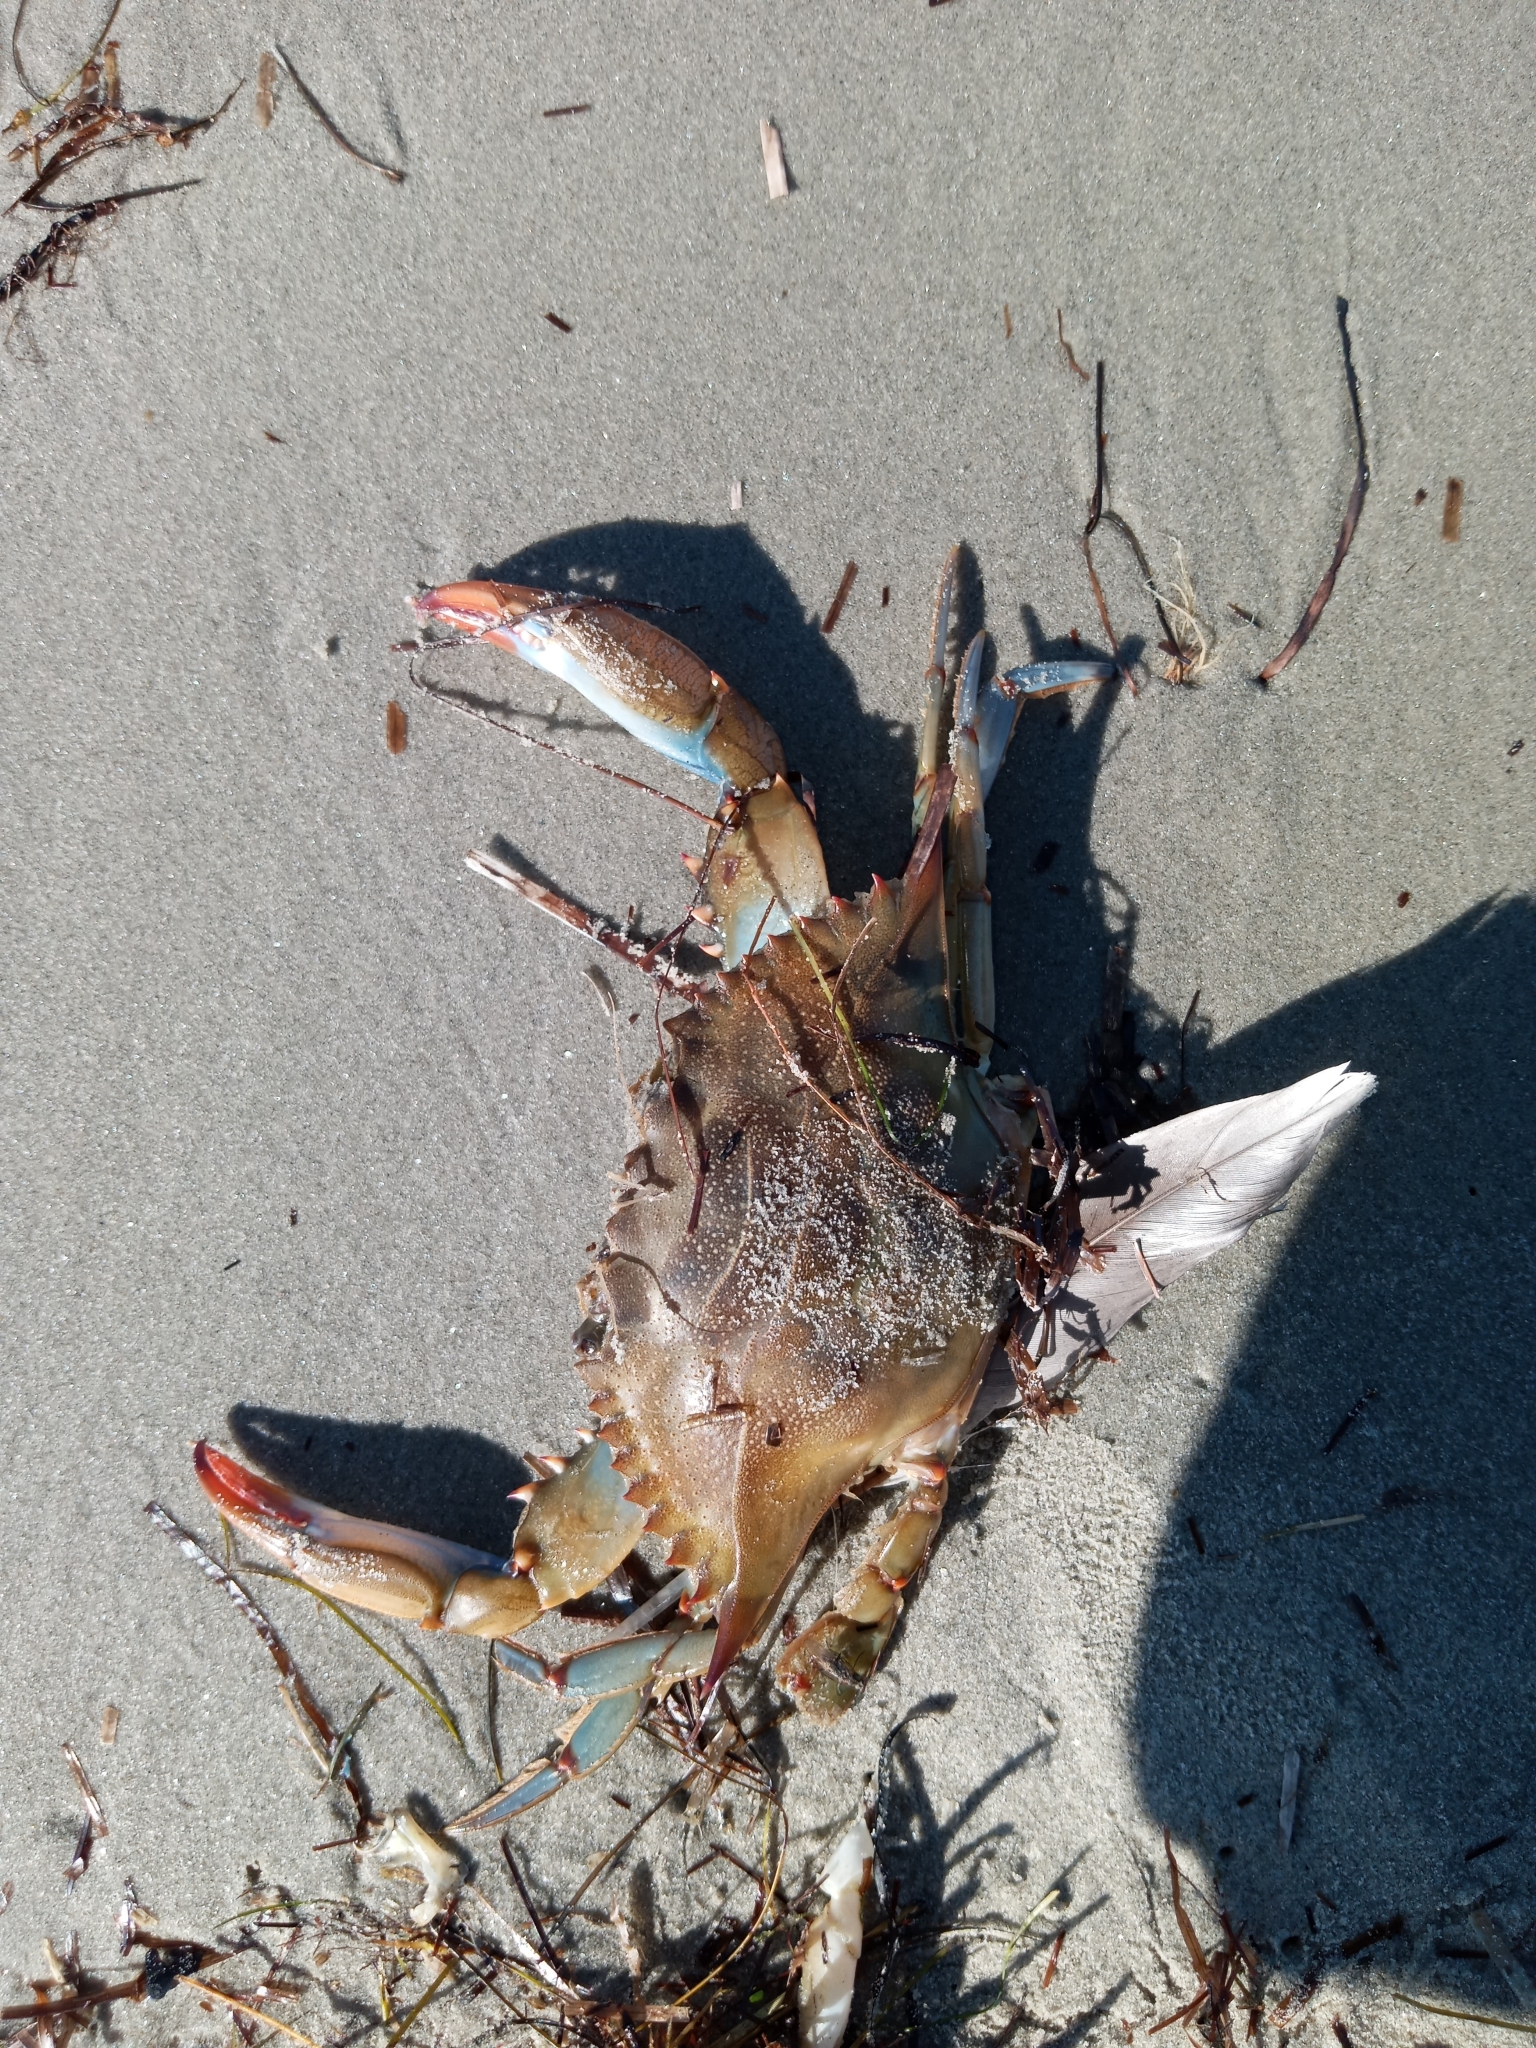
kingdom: Animalia
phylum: Arthropoda
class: Malacostraca
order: Decapoda
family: Portunidae
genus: Callinectes
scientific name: Callinectes sapidus
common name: Blue crab
